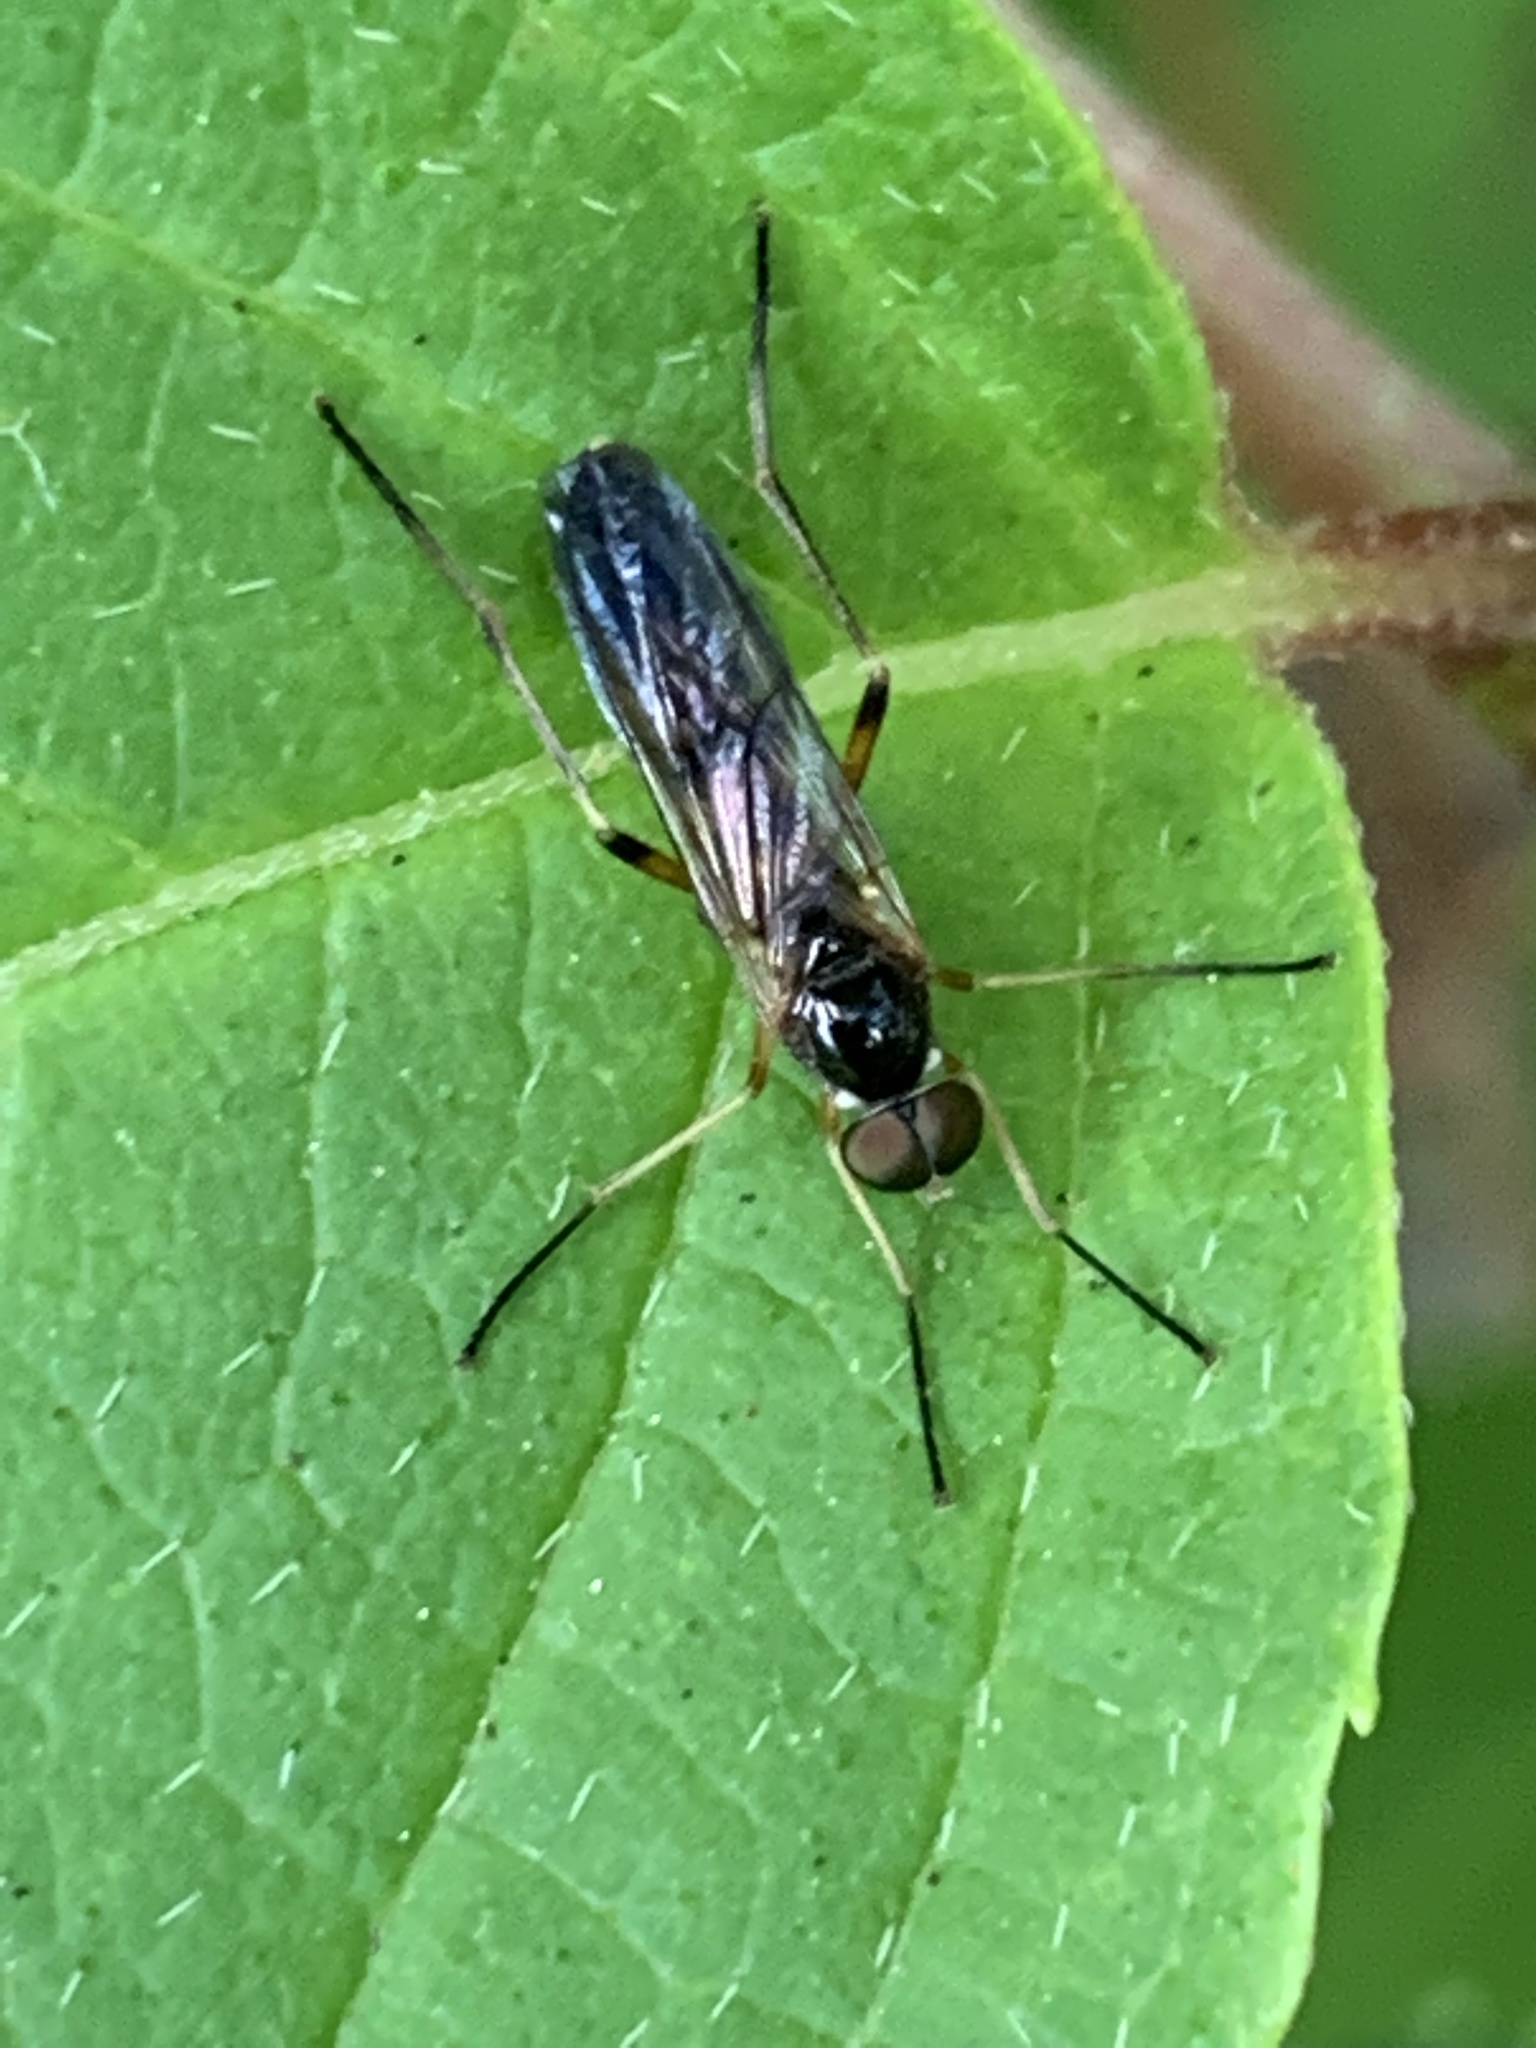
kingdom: Animalia
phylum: Arthropoda
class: Insecta
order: Diptera
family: Xylophagidae
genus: Dialysis
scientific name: Dialysis elongata
